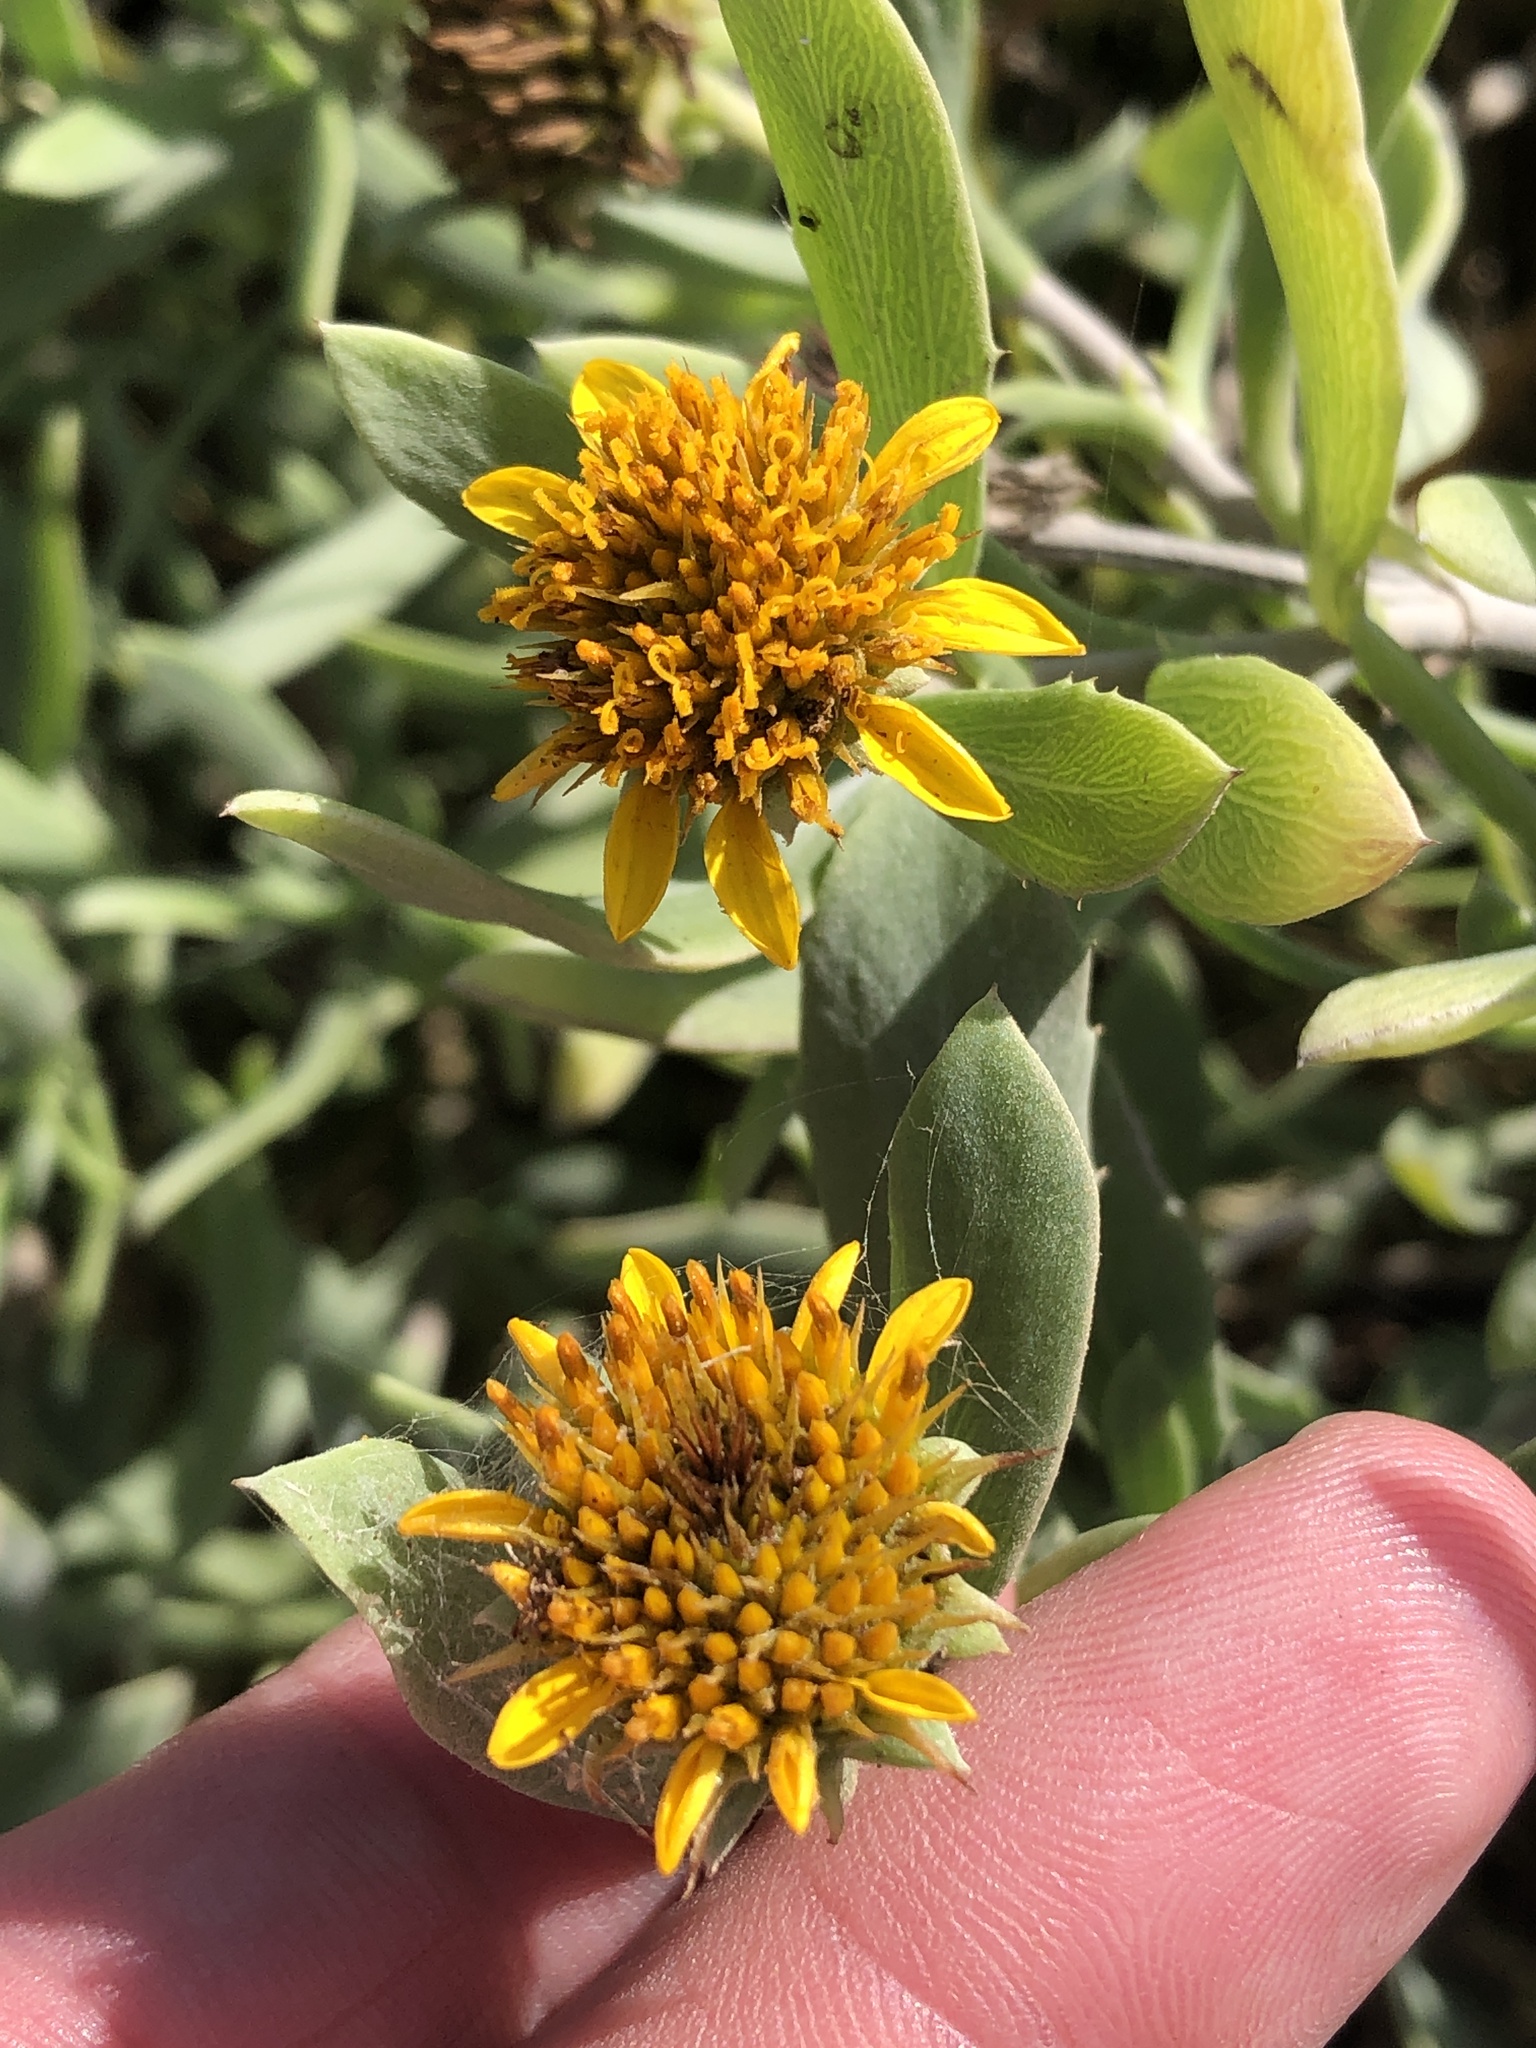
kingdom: Plantae
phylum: Tracheophyta
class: Magnoliopsida
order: Asterales
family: Asteraceae
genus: Borrichia
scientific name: Borrichia frutescens
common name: Sea oxeye
